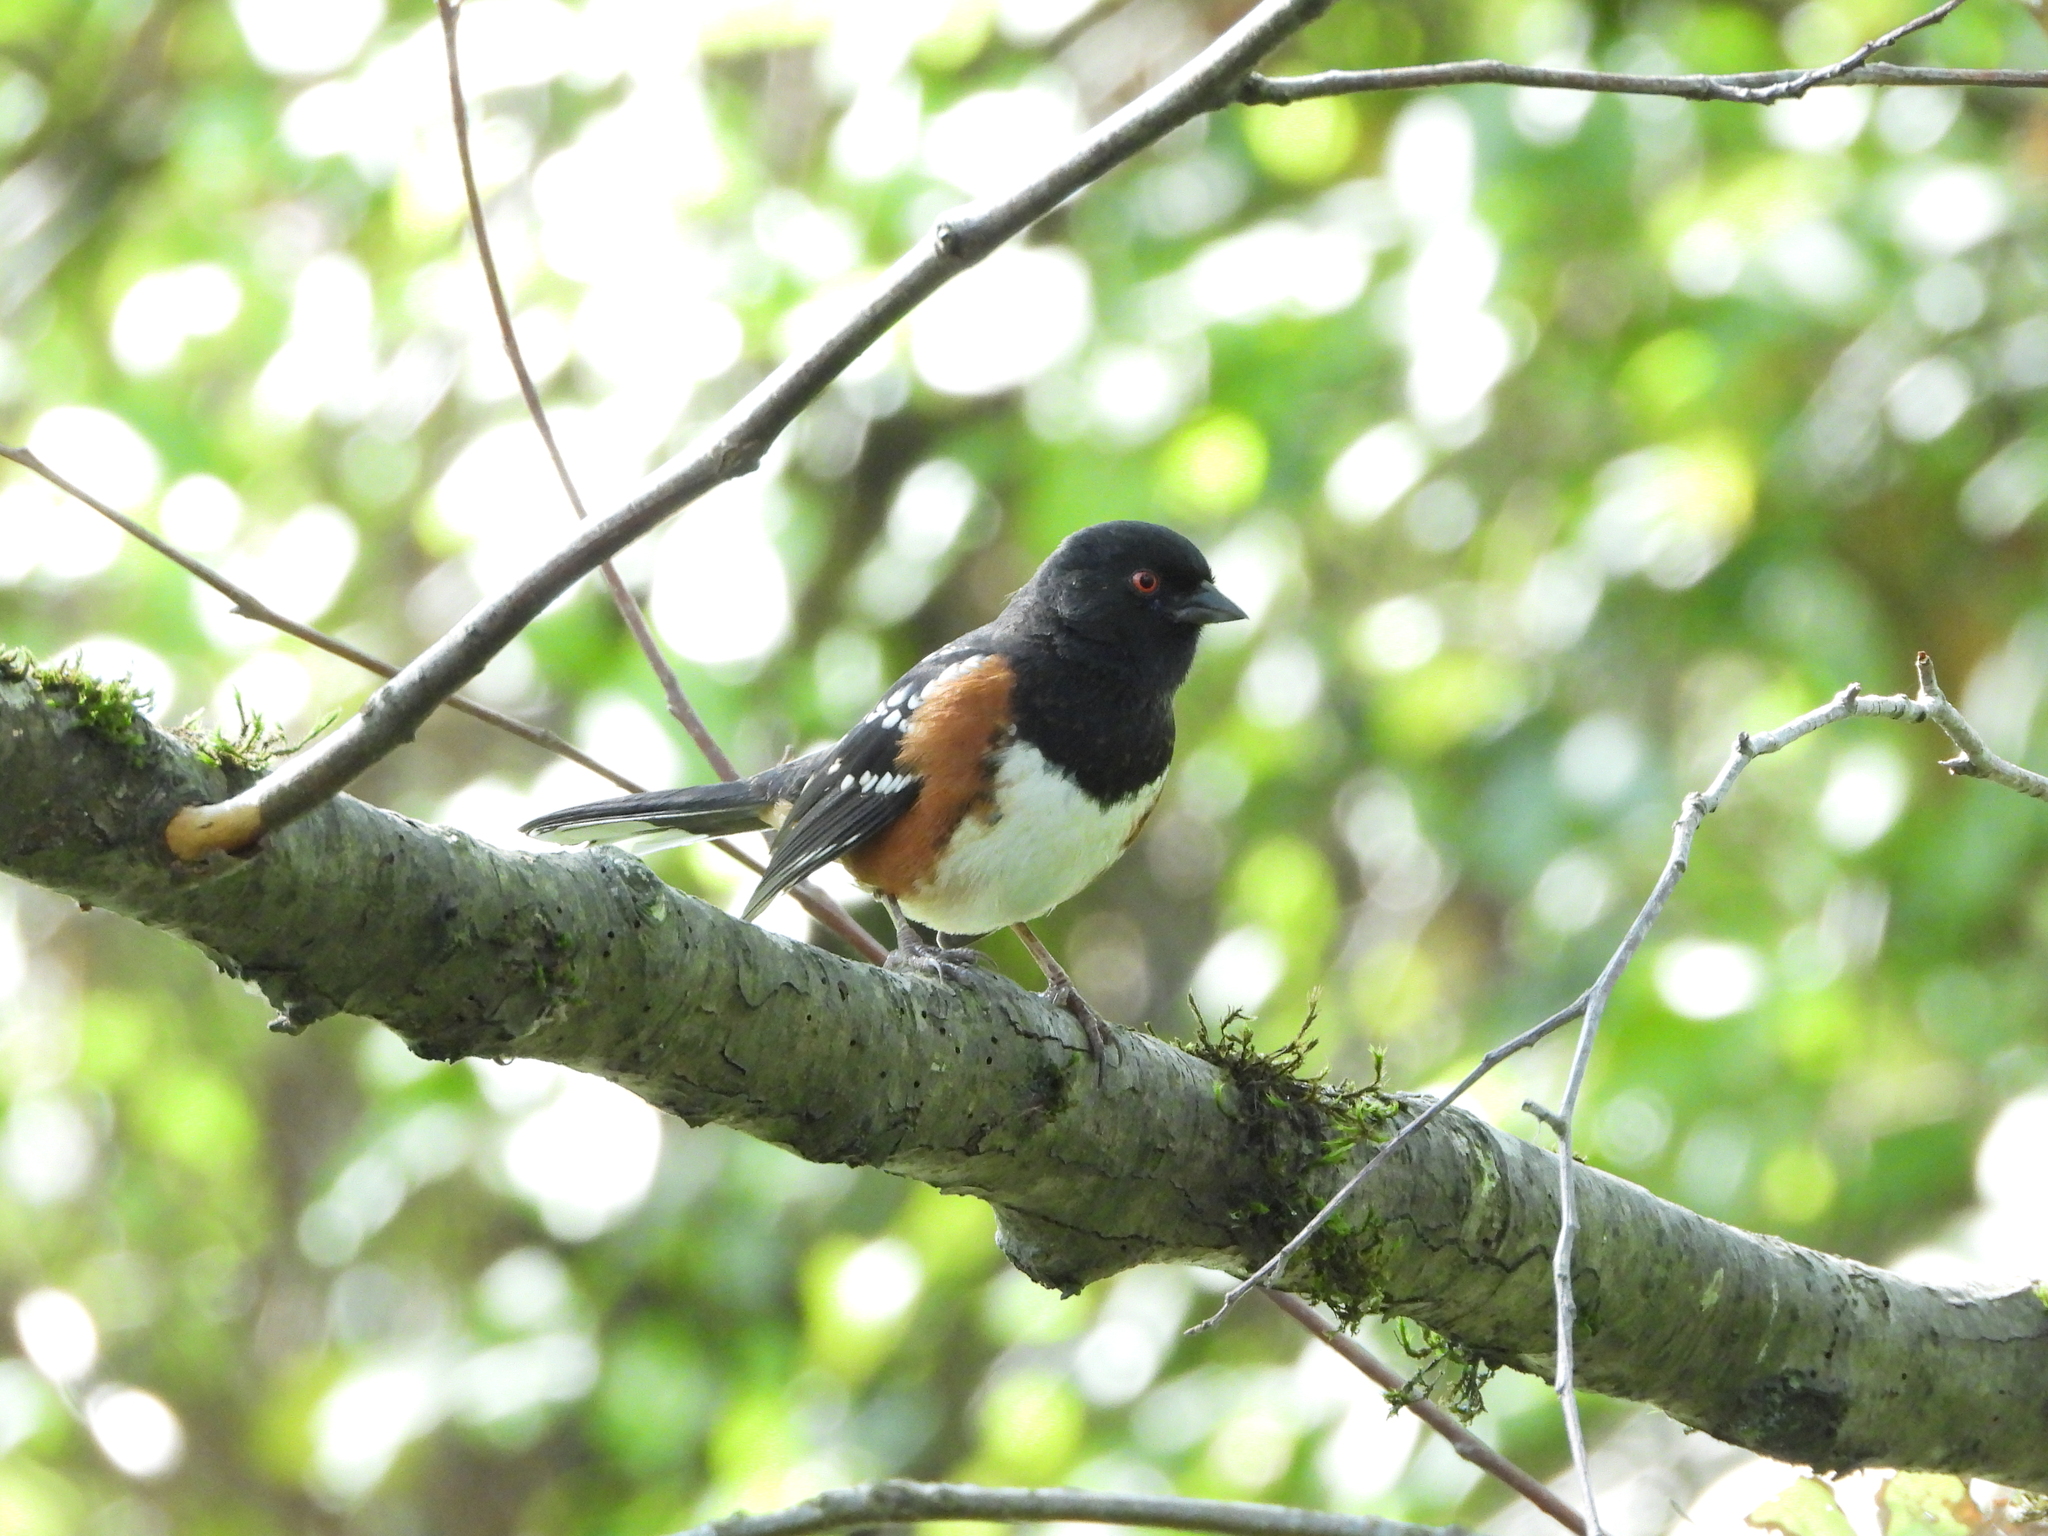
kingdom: Animalia
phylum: Chordata
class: Aves
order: Passeriformes
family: Passerellidae
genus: Pipilo
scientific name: Pipilo maculatus
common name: Spotted towhee
